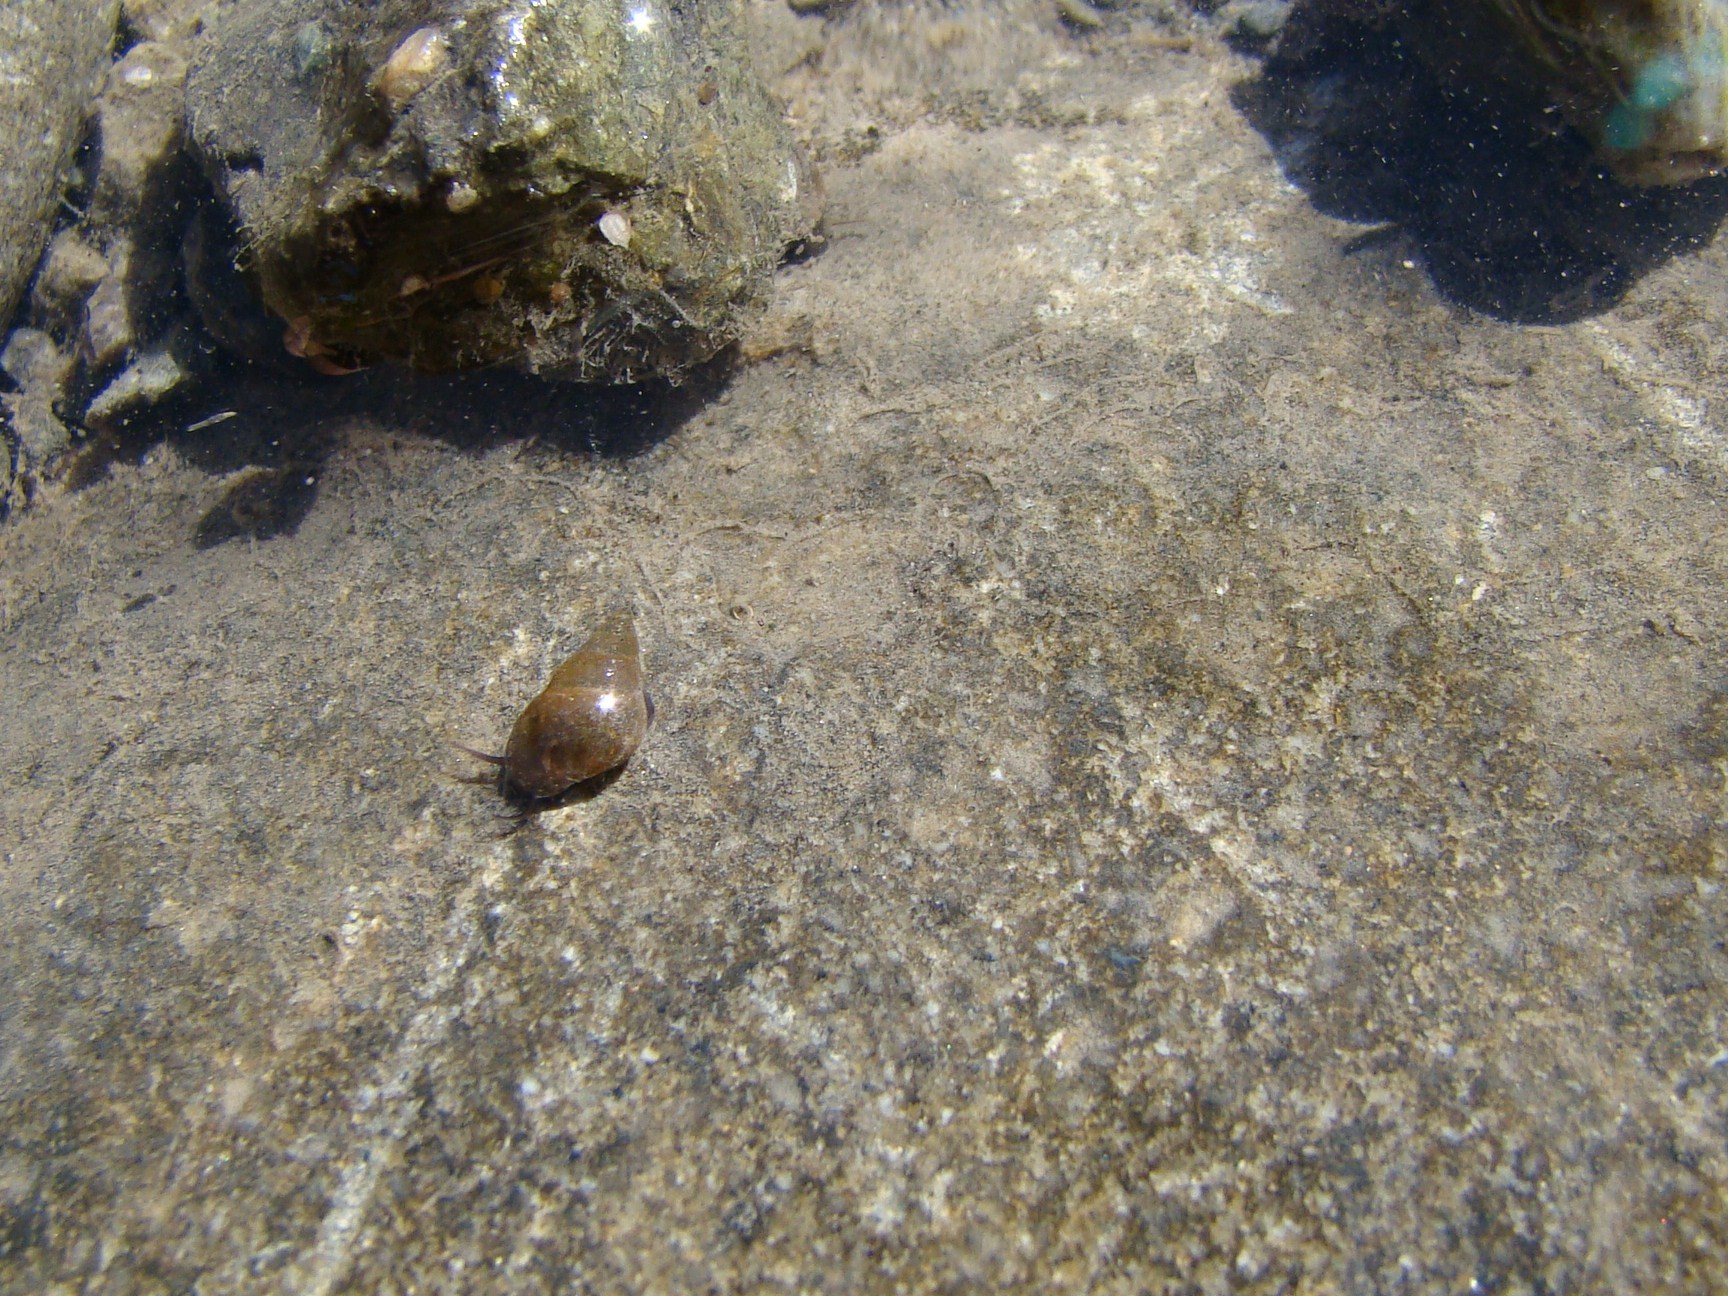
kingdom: Animalia
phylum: Mollusca
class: Gastropoda
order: Littorinimorpha
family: Tateidae
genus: Potamopyrgus
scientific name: Potamopyrgus antipodarum
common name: Jenkins' spire snail
